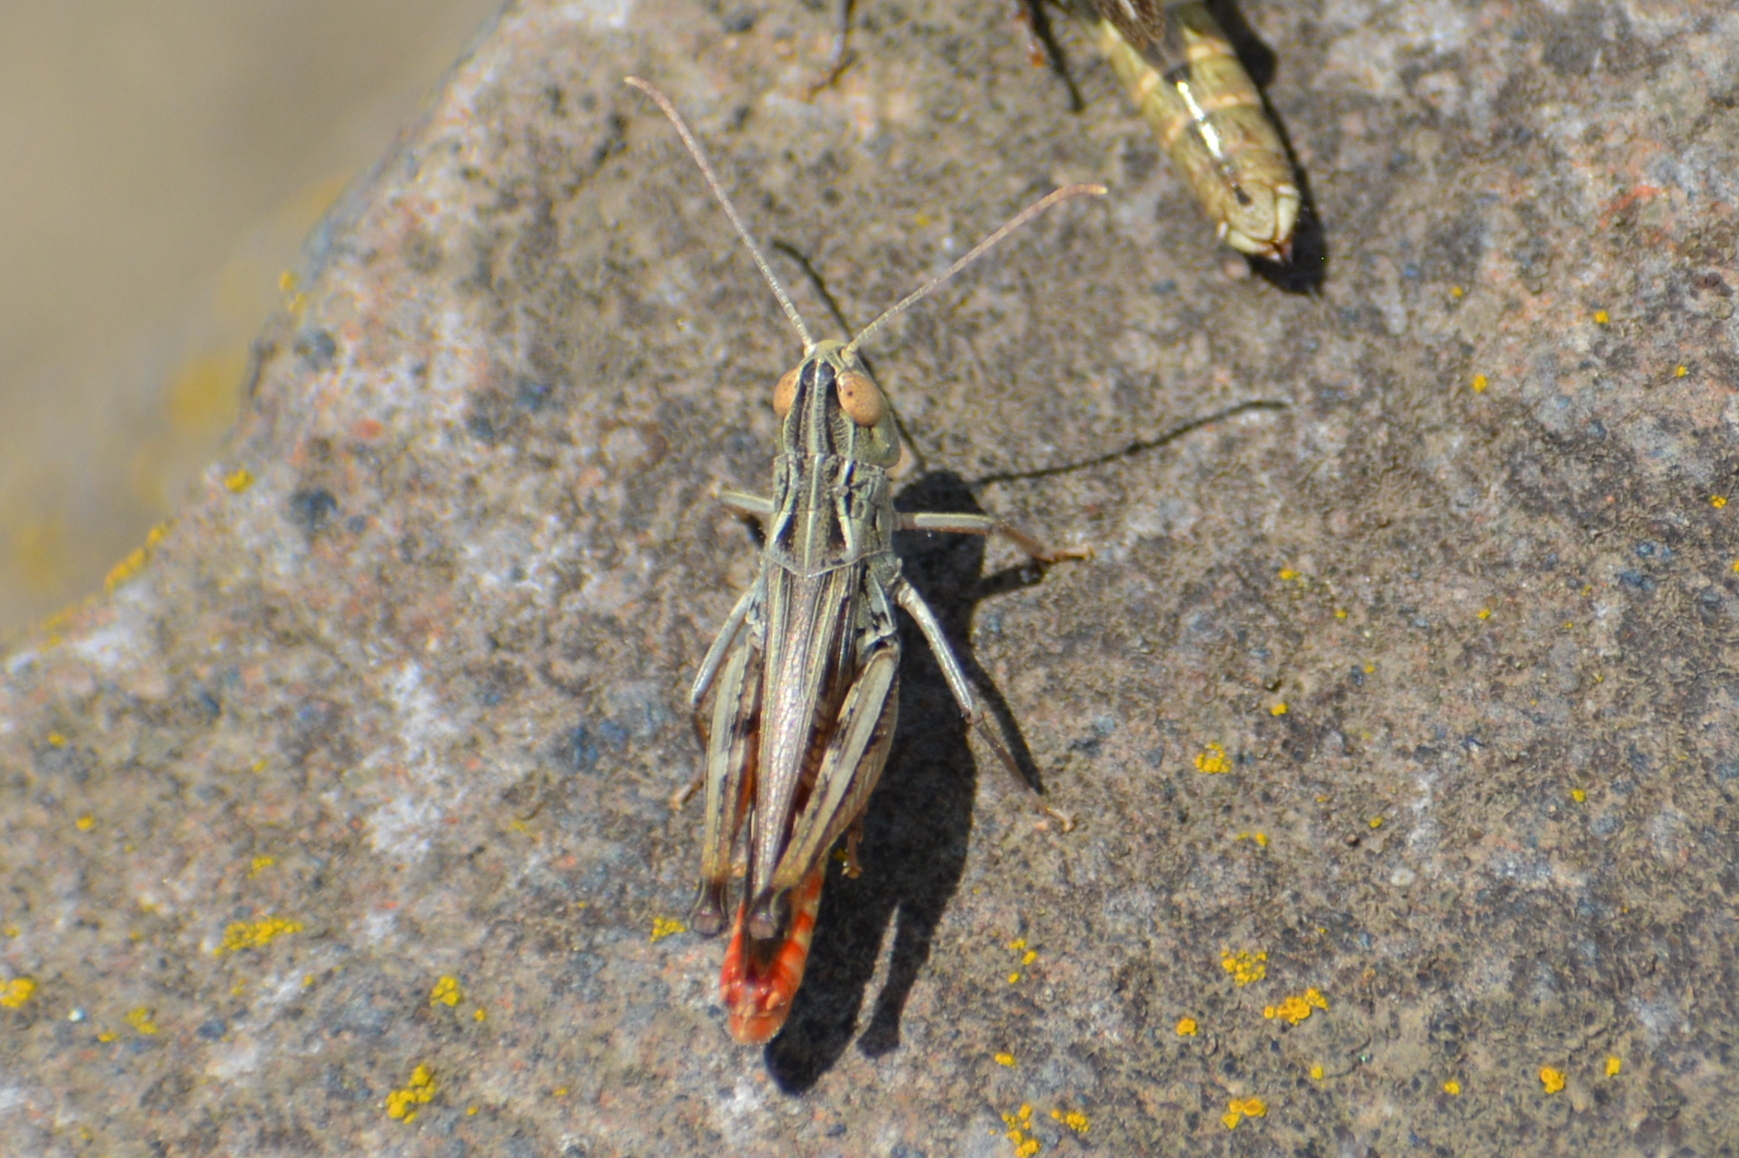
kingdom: Animalia
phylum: Arthropoda
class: Insecta
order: Orthoptera
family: Acrididae
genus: Stenobothrus
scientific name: Stenobothrus eurasius
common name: Eurasian toothed grasshopper
